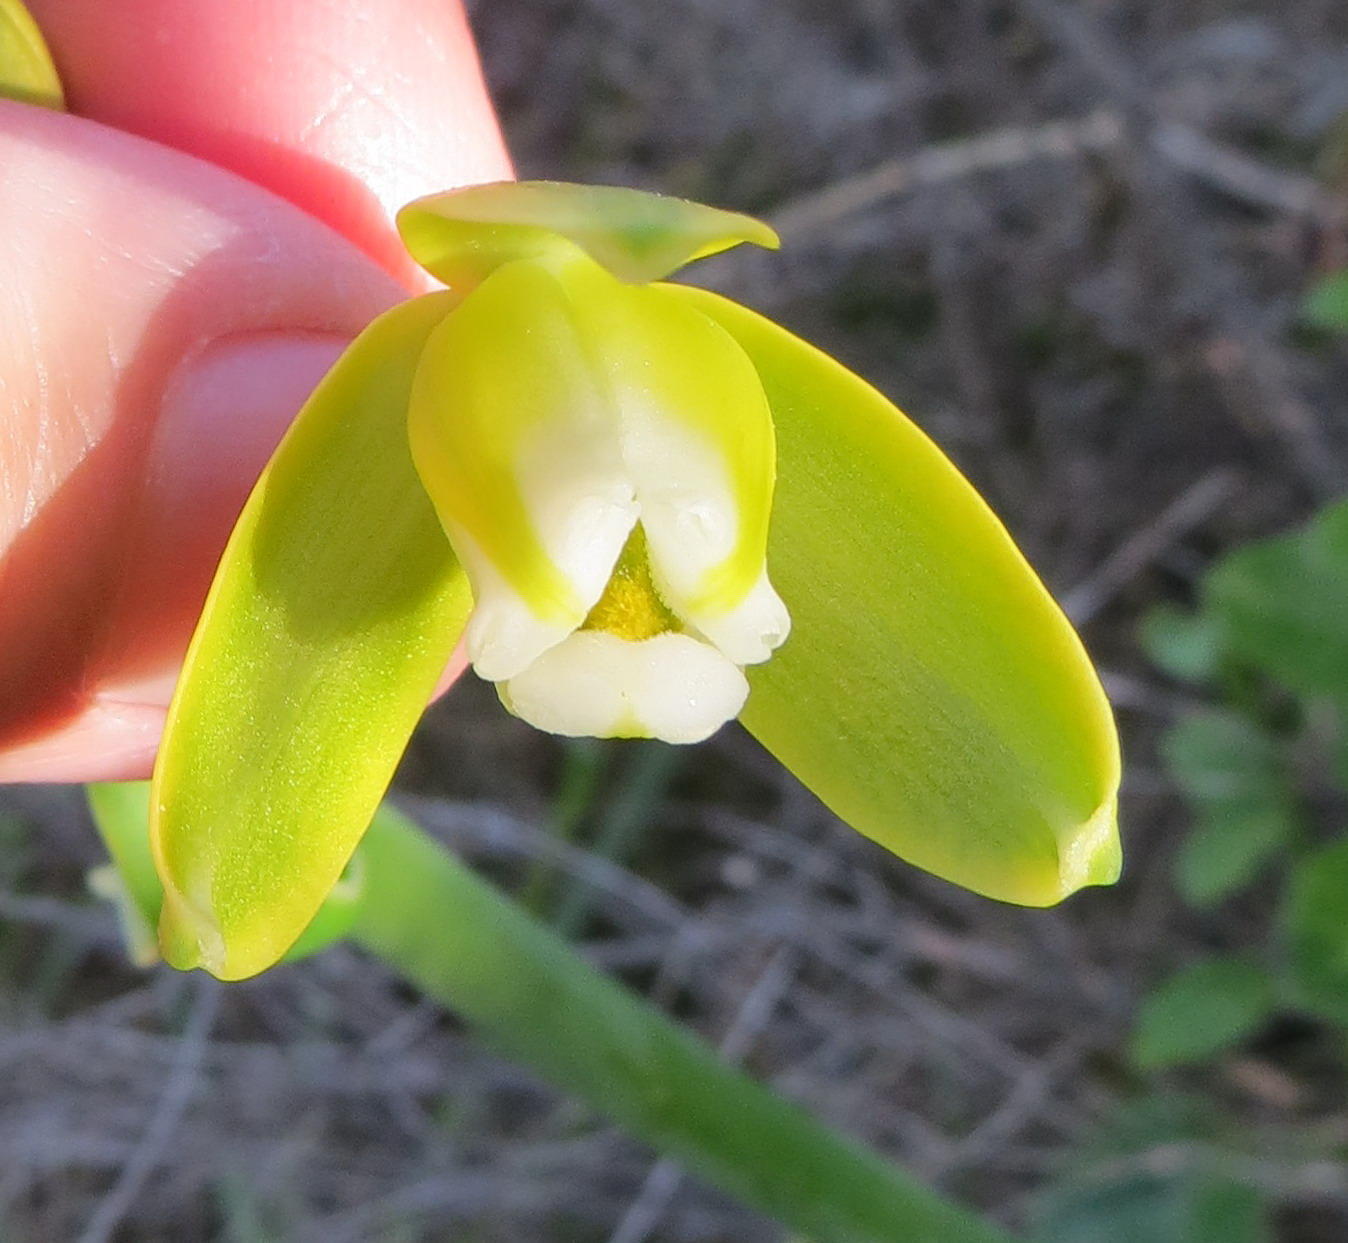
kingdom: Plantae
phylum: Tracheophyta
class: Liliopsida
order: Asparagales
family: Asparagaceae
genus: Albuca
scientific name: Albuca flaccida
